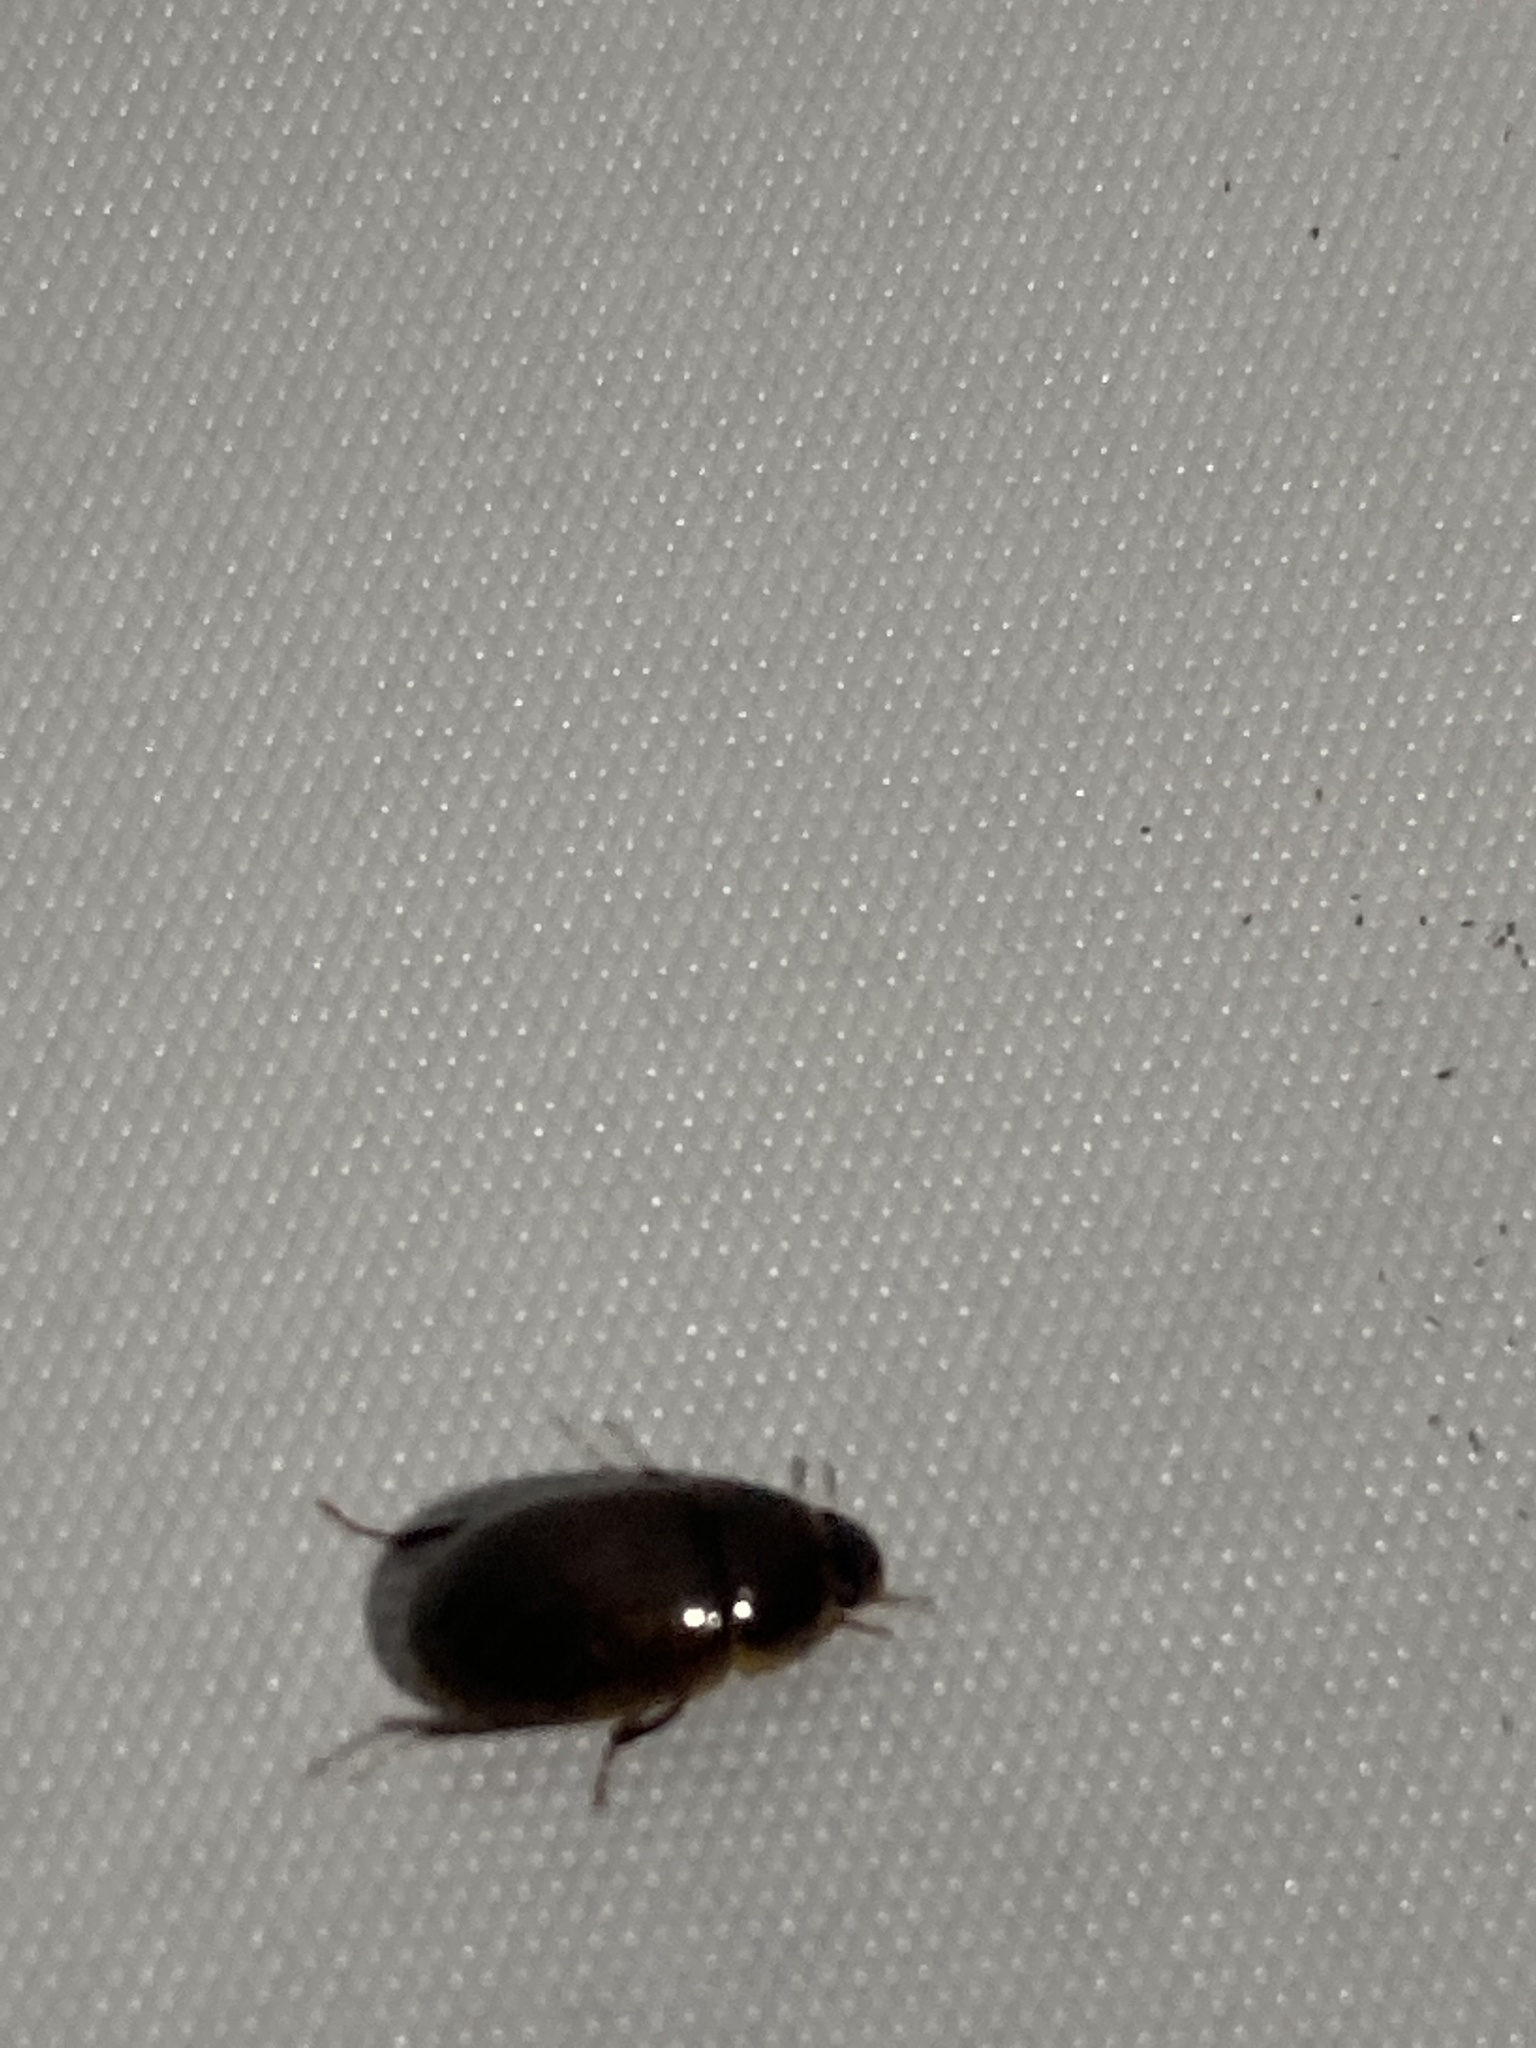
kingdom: Animalia
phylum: Arthropoda
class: Insecta
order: Coleoptera
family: Hydrophilidae
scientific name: Hydrophilidae
